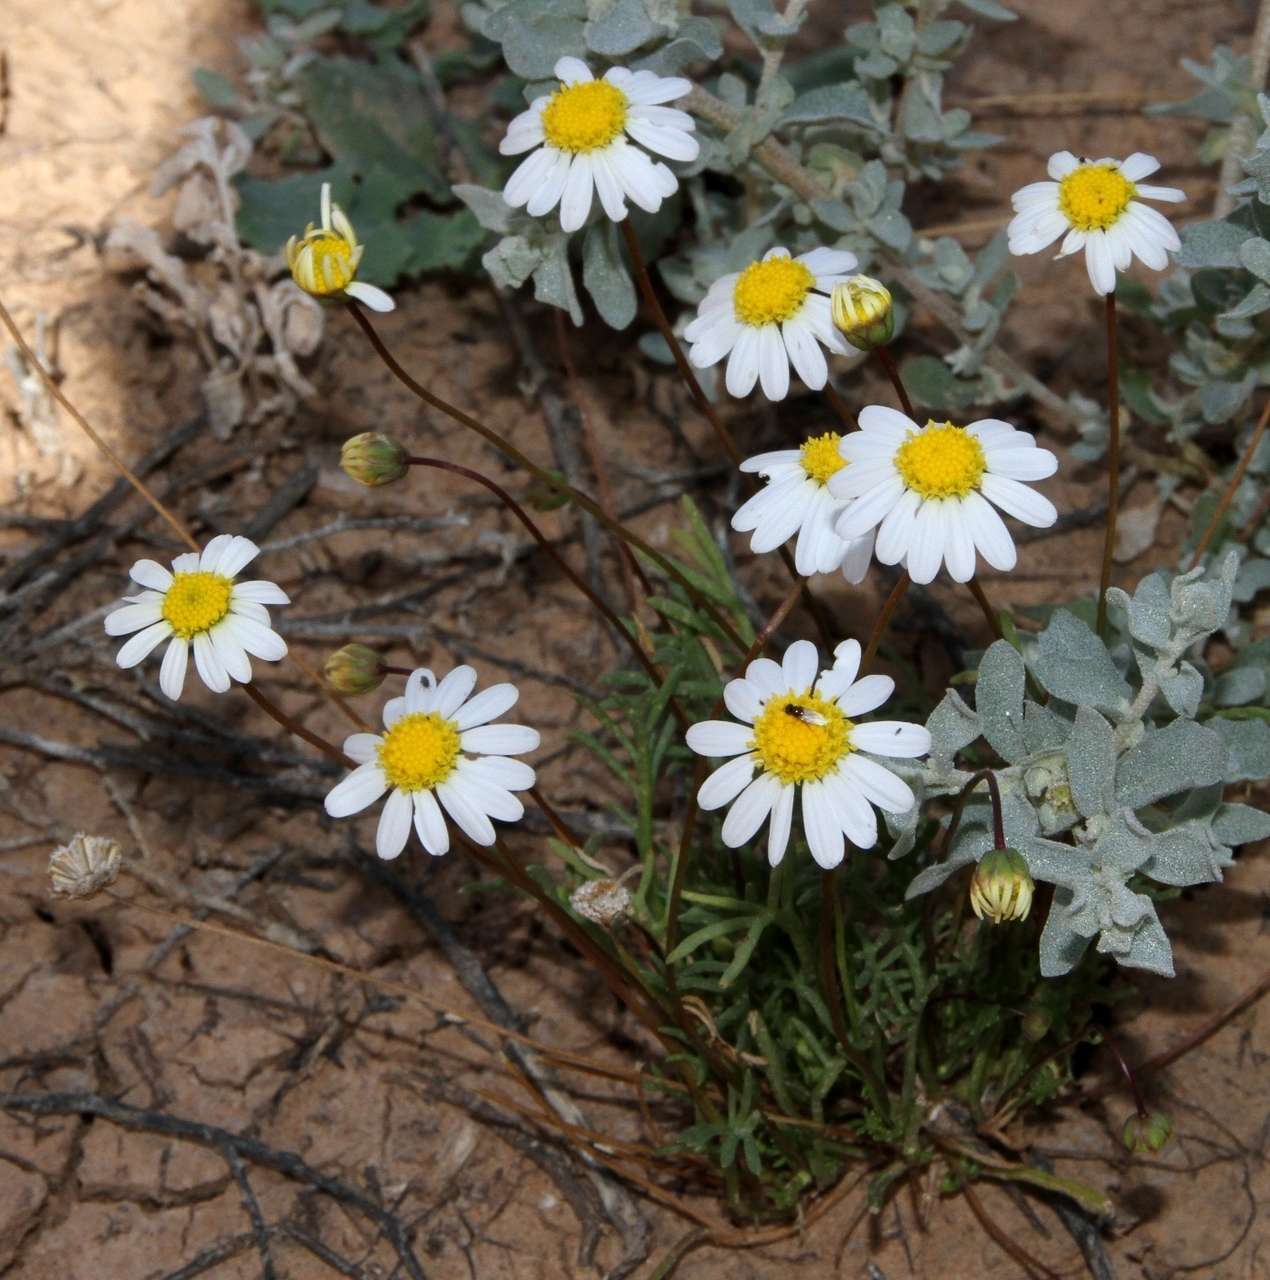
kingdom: Plantae
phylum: Tracheophyta
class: Magnoliopsida
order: Asterales
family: Asteraceae
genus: Brachyscome
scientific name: Brachyscome lineariloba
